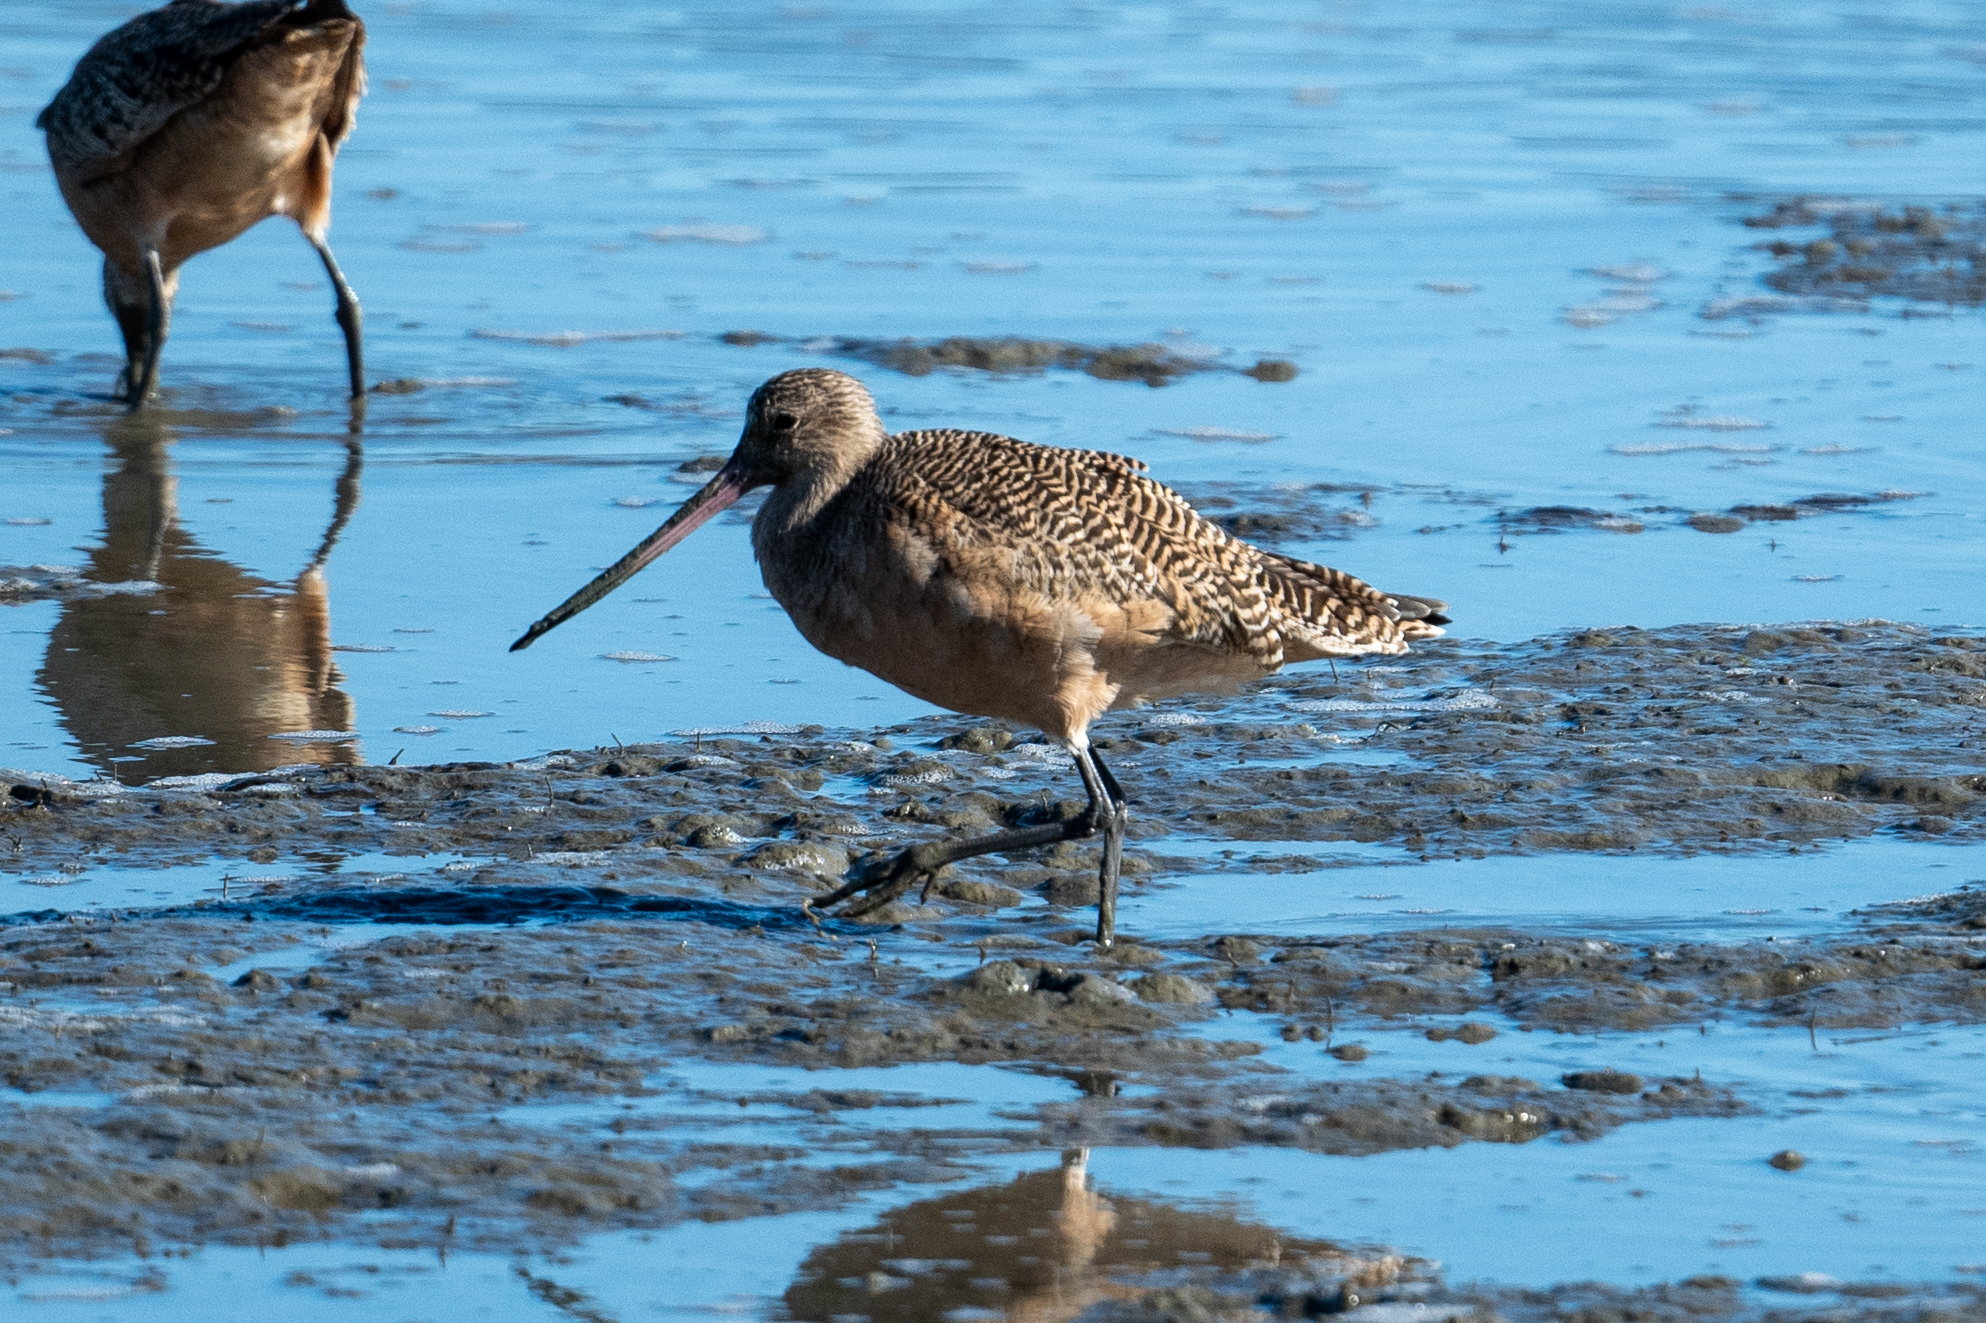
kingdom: Animalia
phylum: Chordata
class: Aves
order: Charadriiformes
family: Scolopacidae
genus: Limosa
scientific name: Limosa fedoa
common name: Marbled godwit
